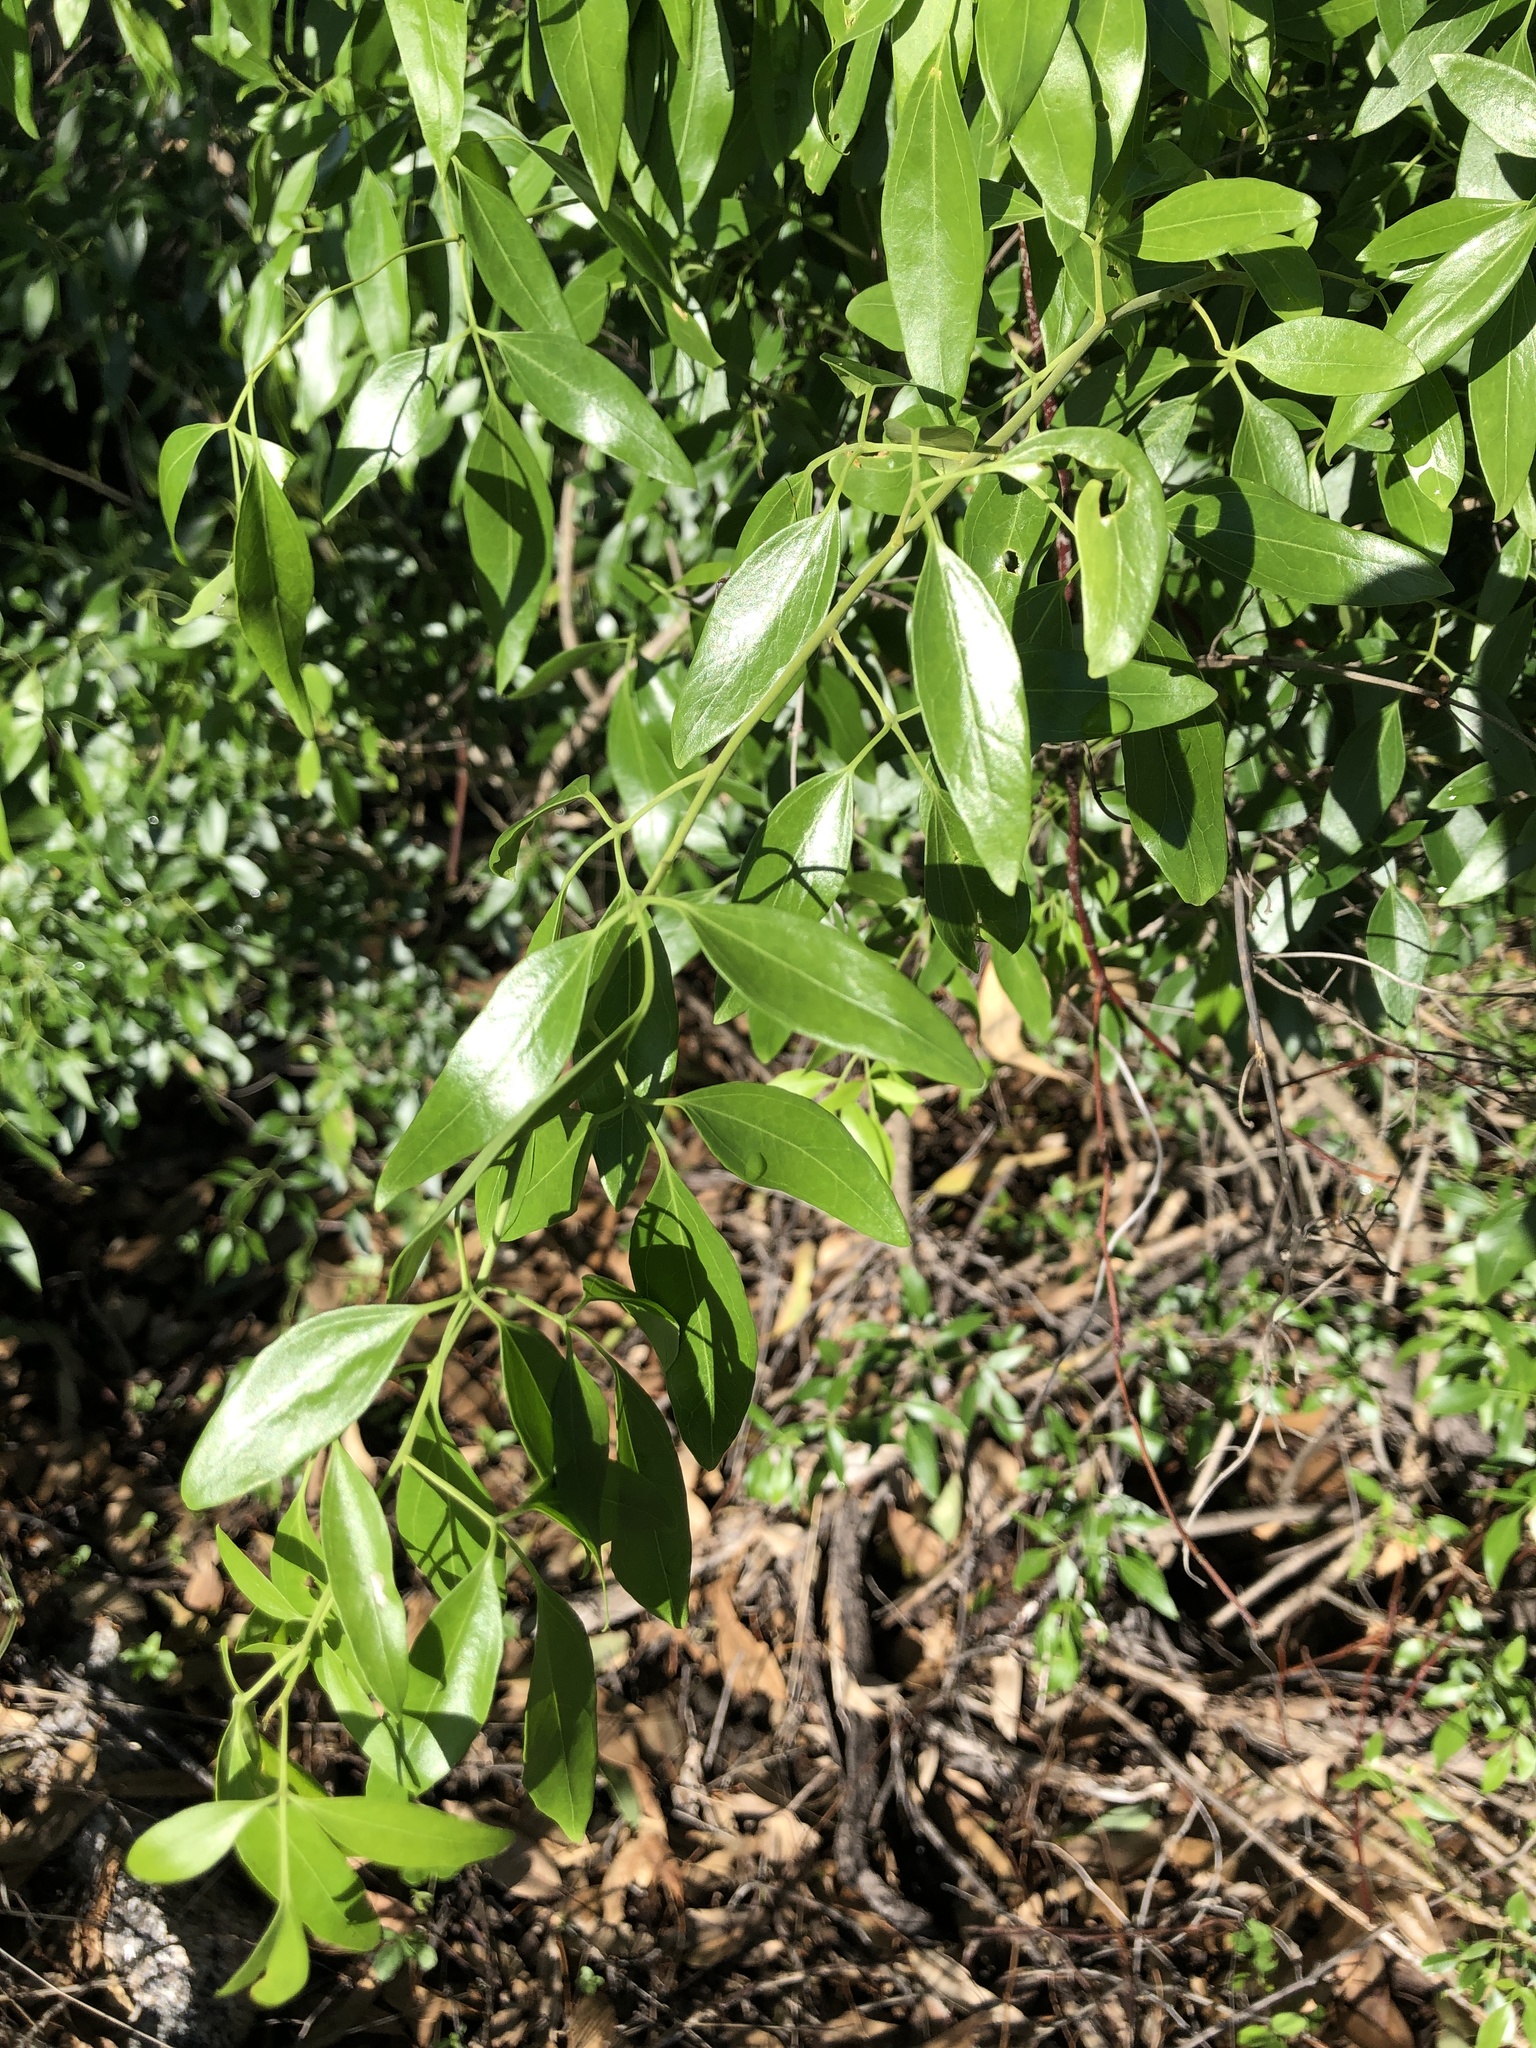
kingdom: Plantae
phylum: Tracheophyta
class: Magnoliopsida
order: Lamiales
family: Oleaceae
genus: Jasminum
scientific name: Jasminum didymum
